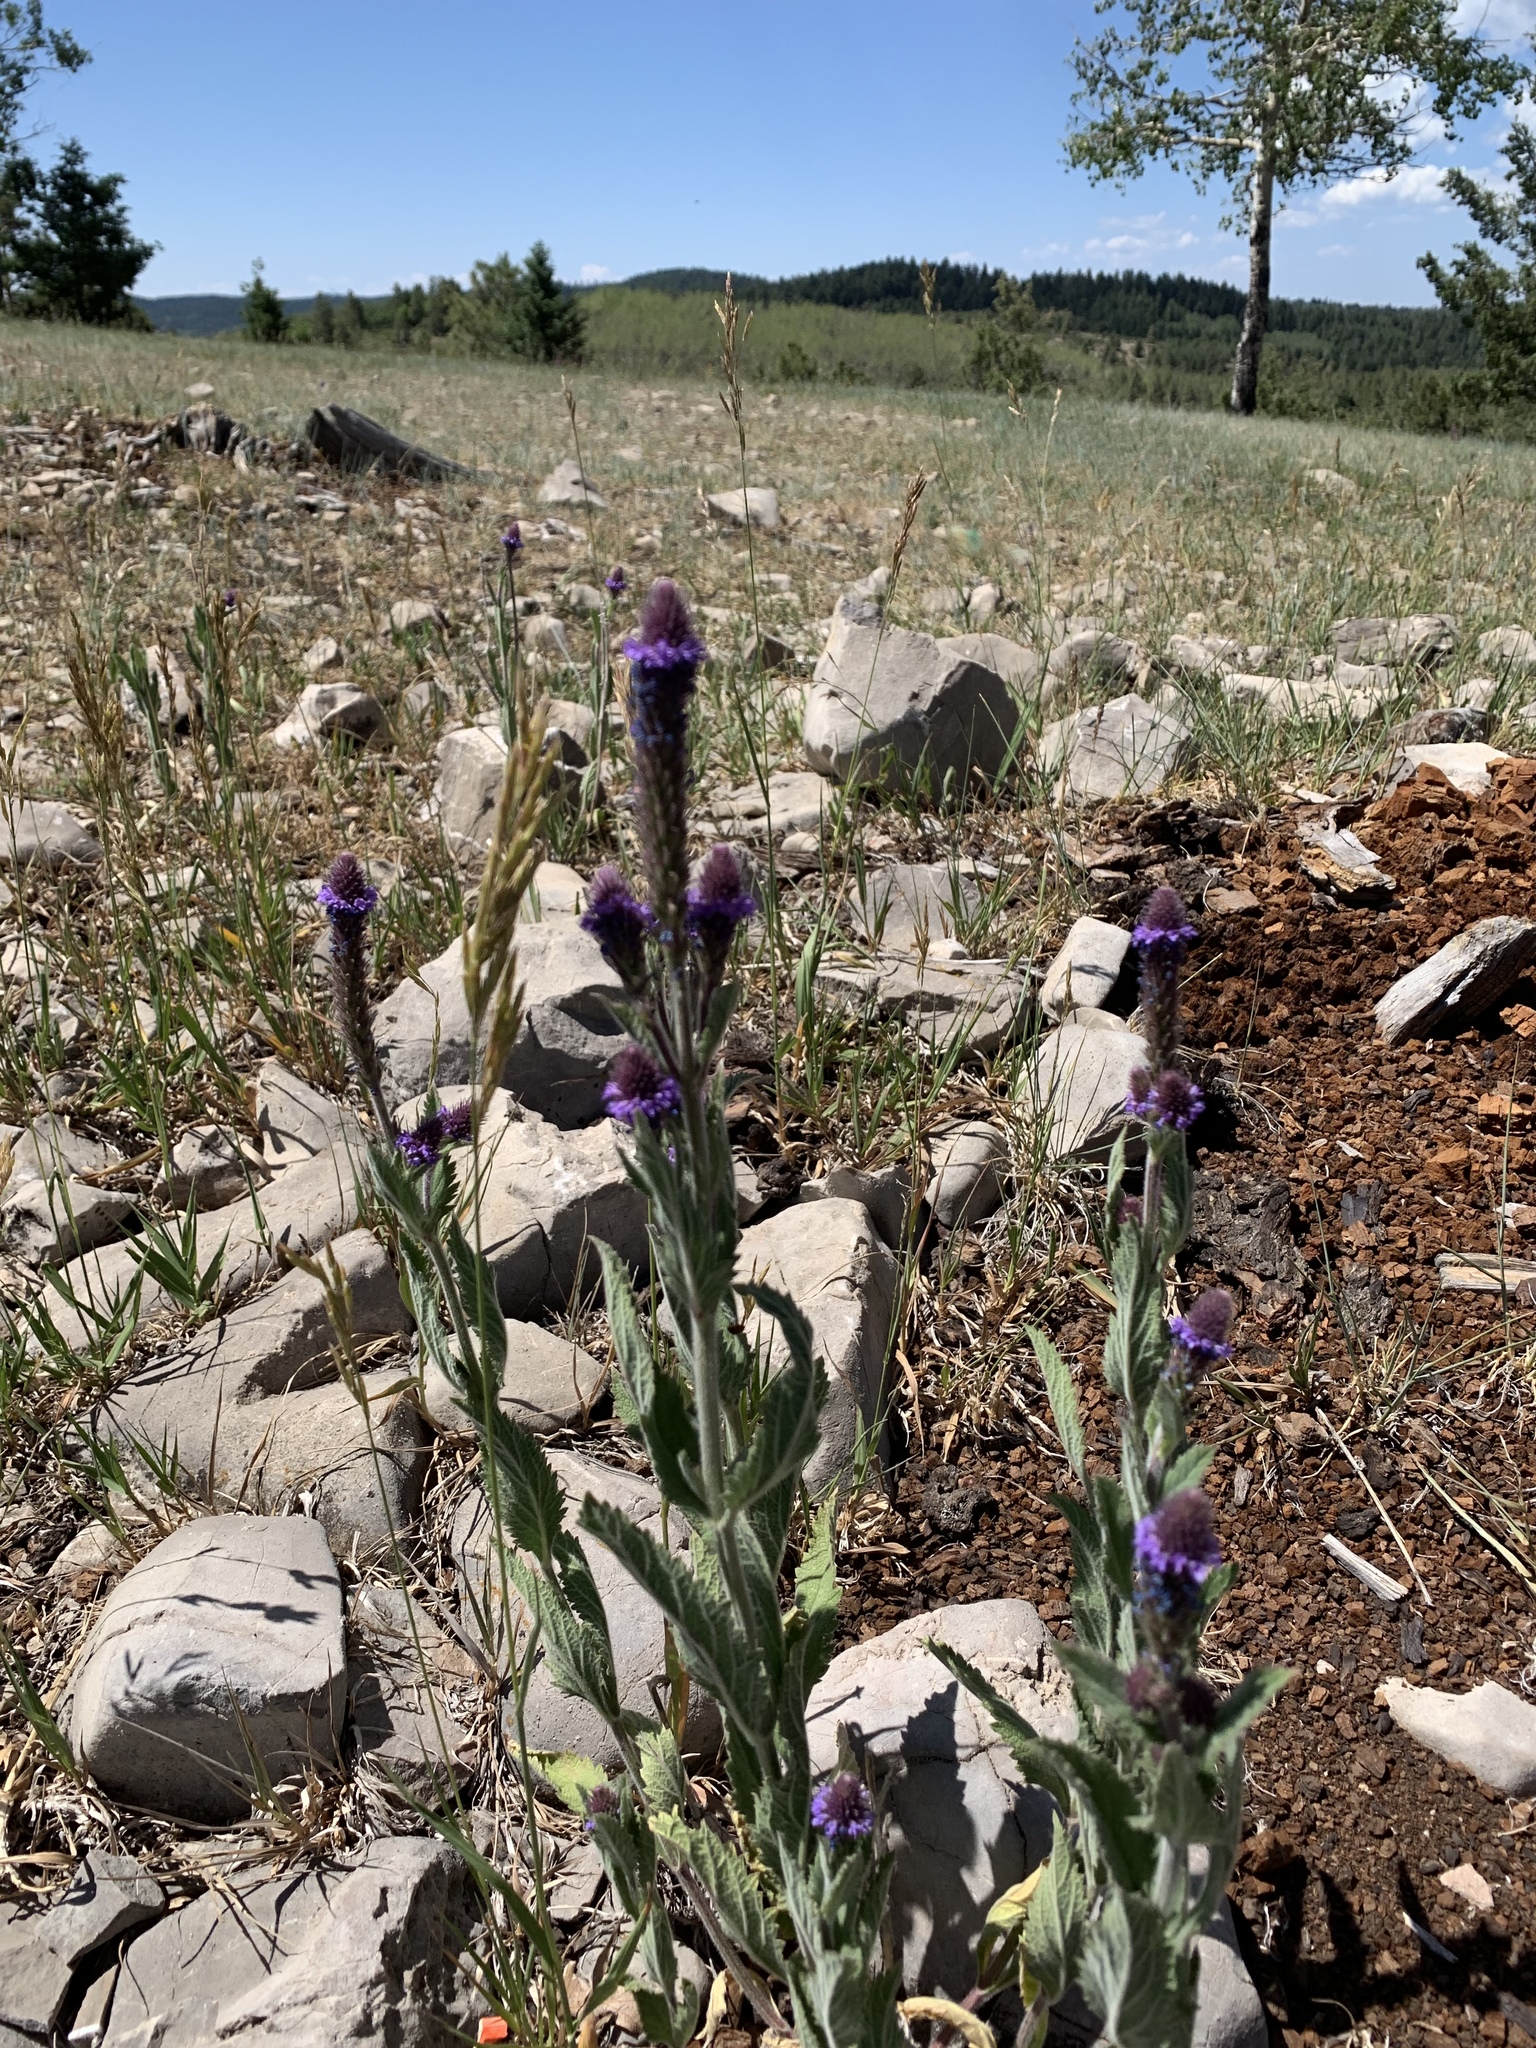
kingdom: Plantae
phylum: Tracheophyta
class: Magnoliopsida
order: Lamiales
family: Verbenaceae
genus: Verbena
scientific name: Verbena macdougalii
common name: New mexico vervain
